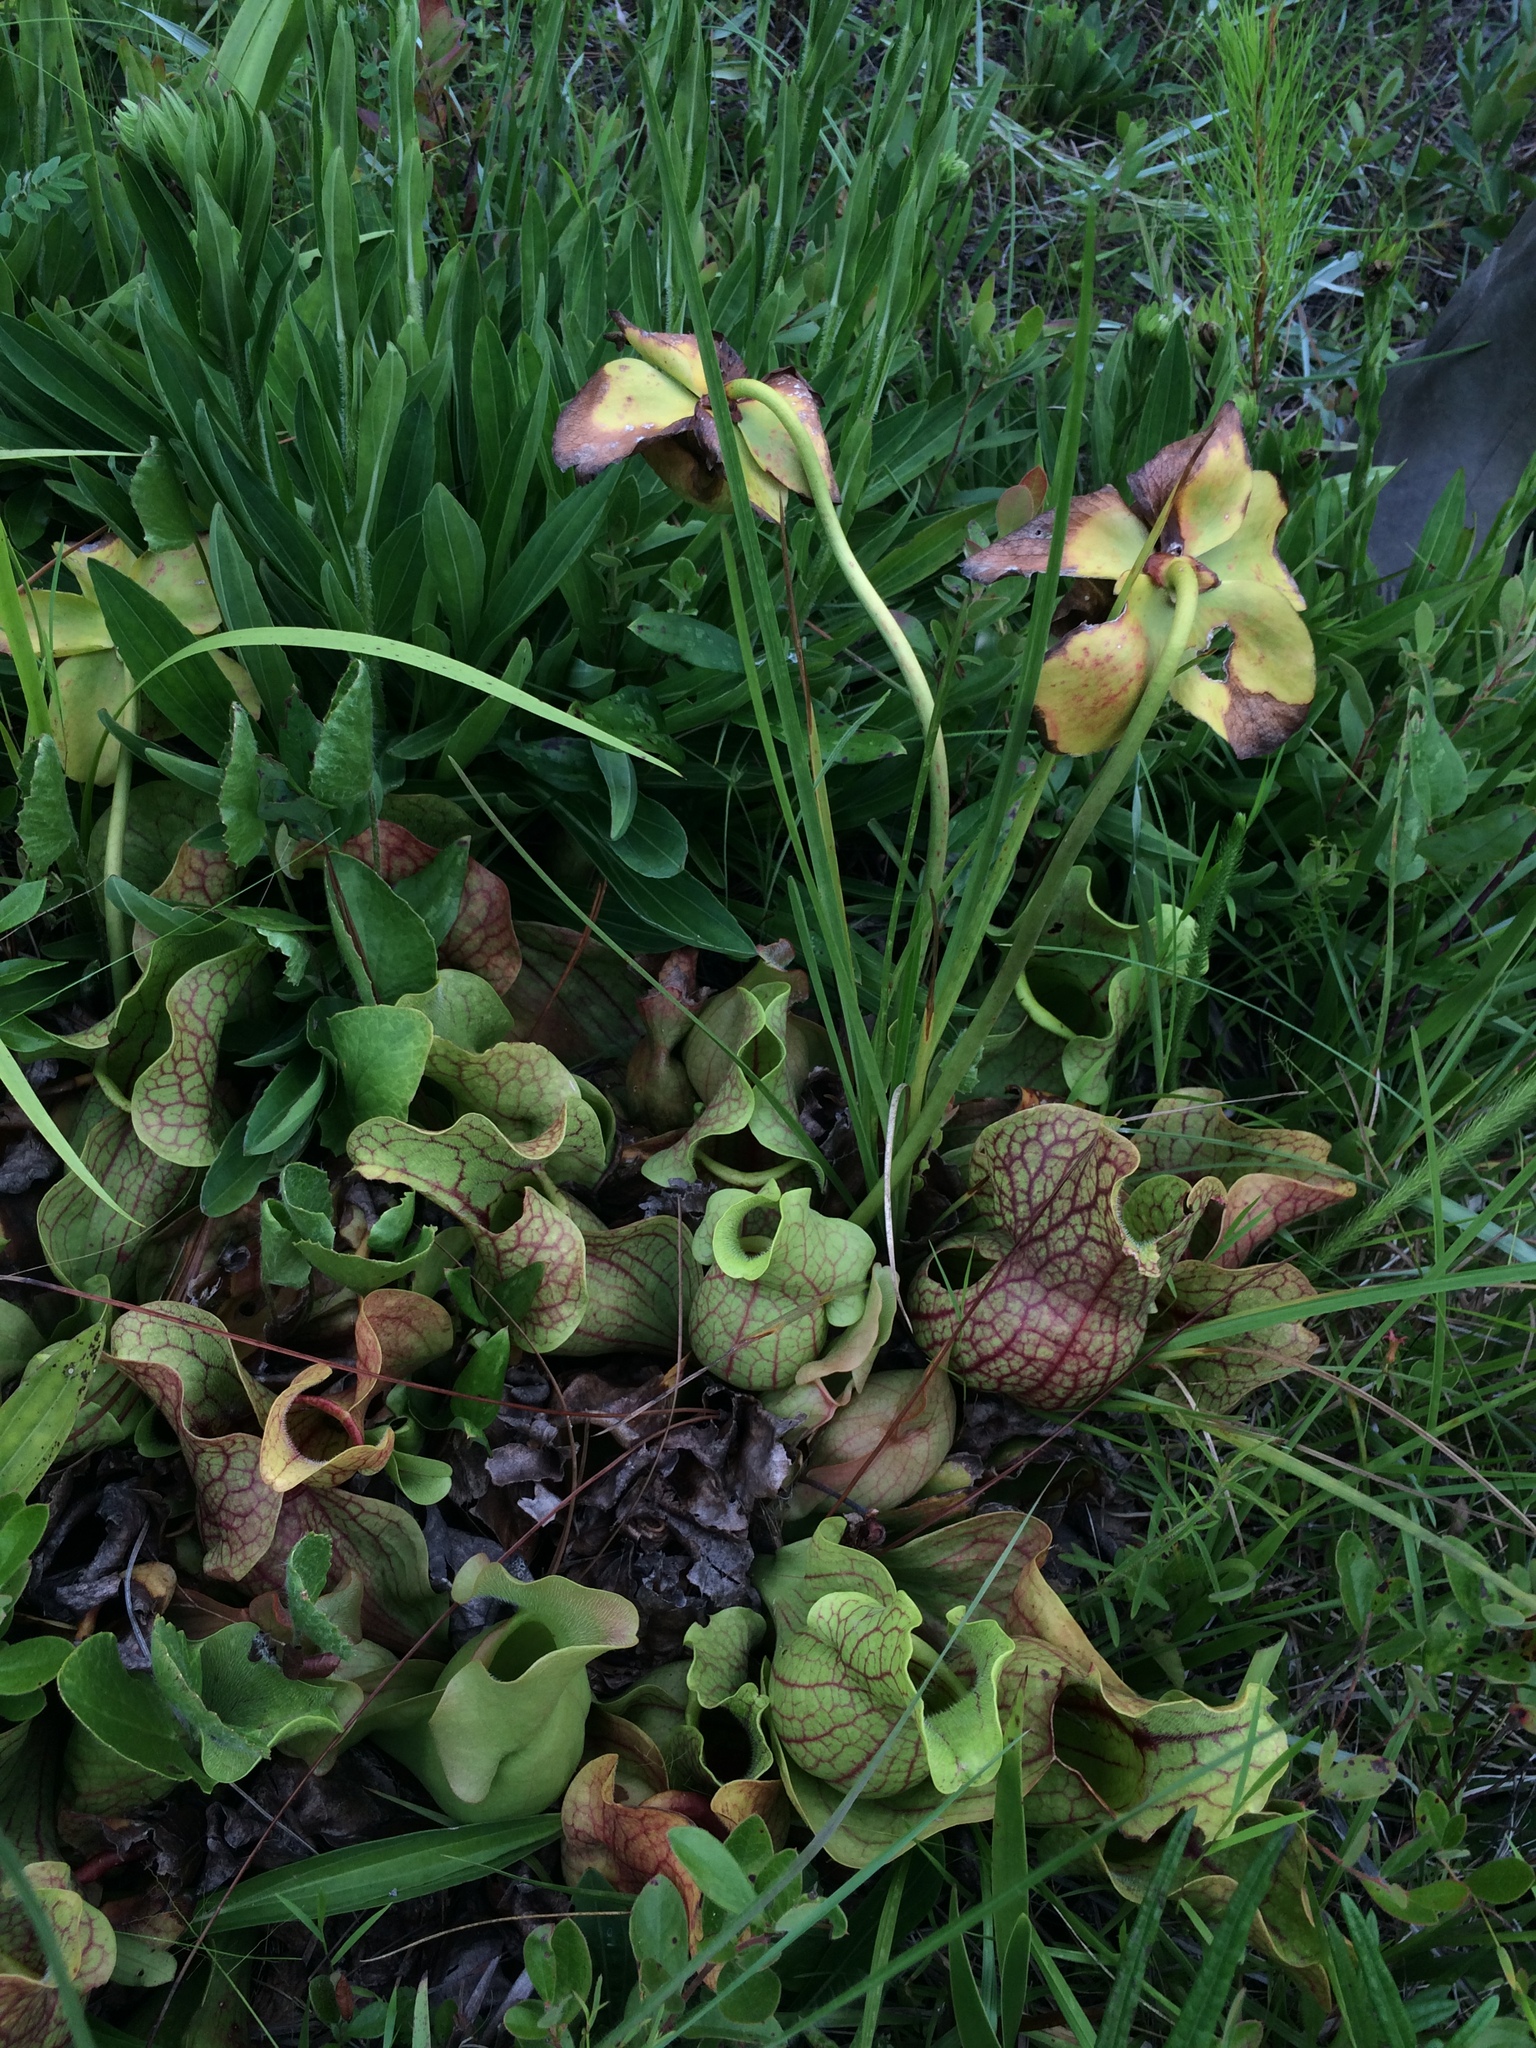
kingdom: Plantae
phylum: Tracheophyta
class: Magnoliopsida
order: Ericales
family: Sarraceniaceae
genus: Sarracenia
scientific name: Sarracenia rosea
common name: Pink pitcherplant
